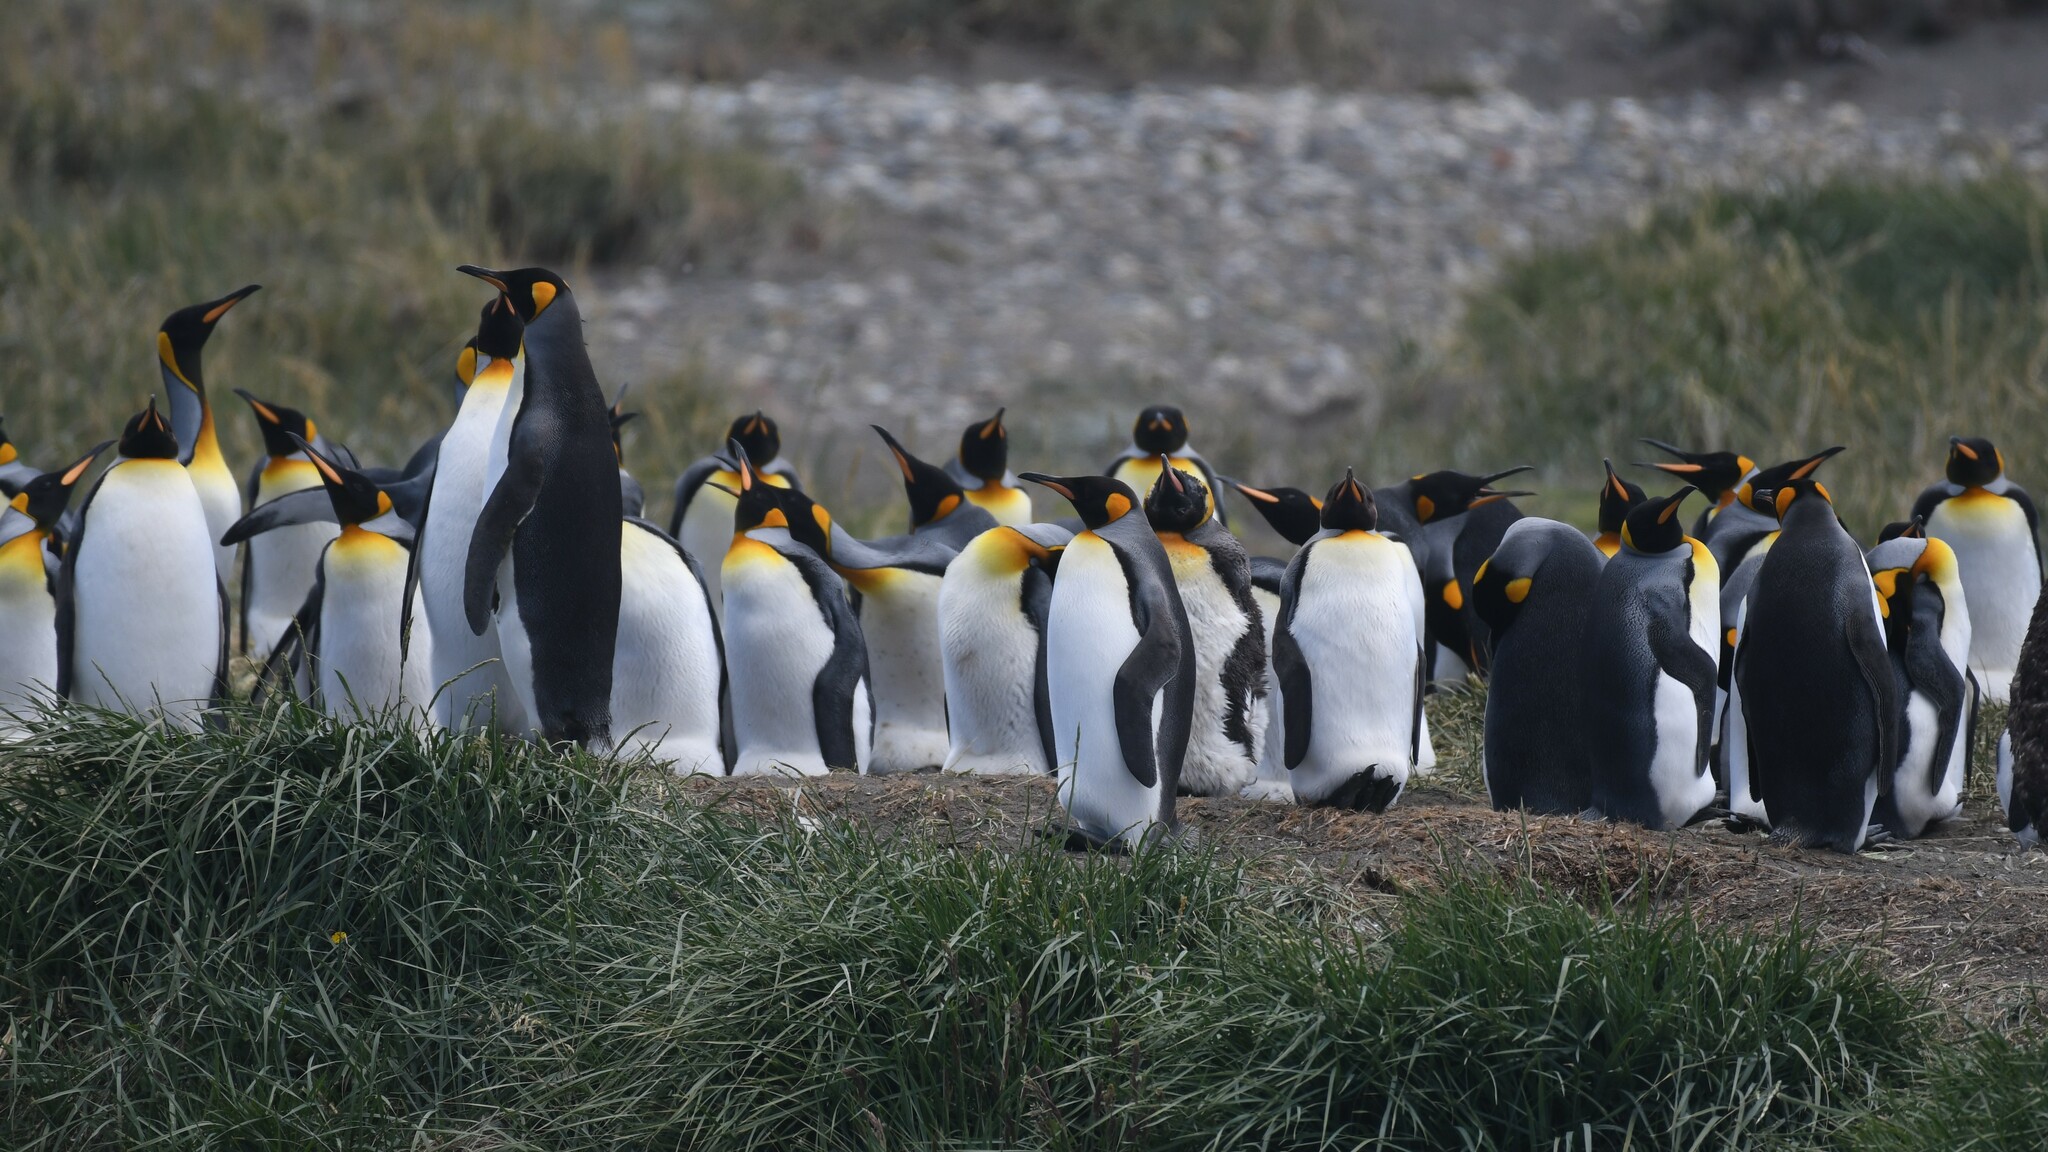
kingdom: Animalia
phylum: Chordata
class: Aves
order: Sphenisciformes
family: Spheniscidae
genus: Aptenodytes
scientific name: Aptenodytes patagonicus
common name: King penguin
